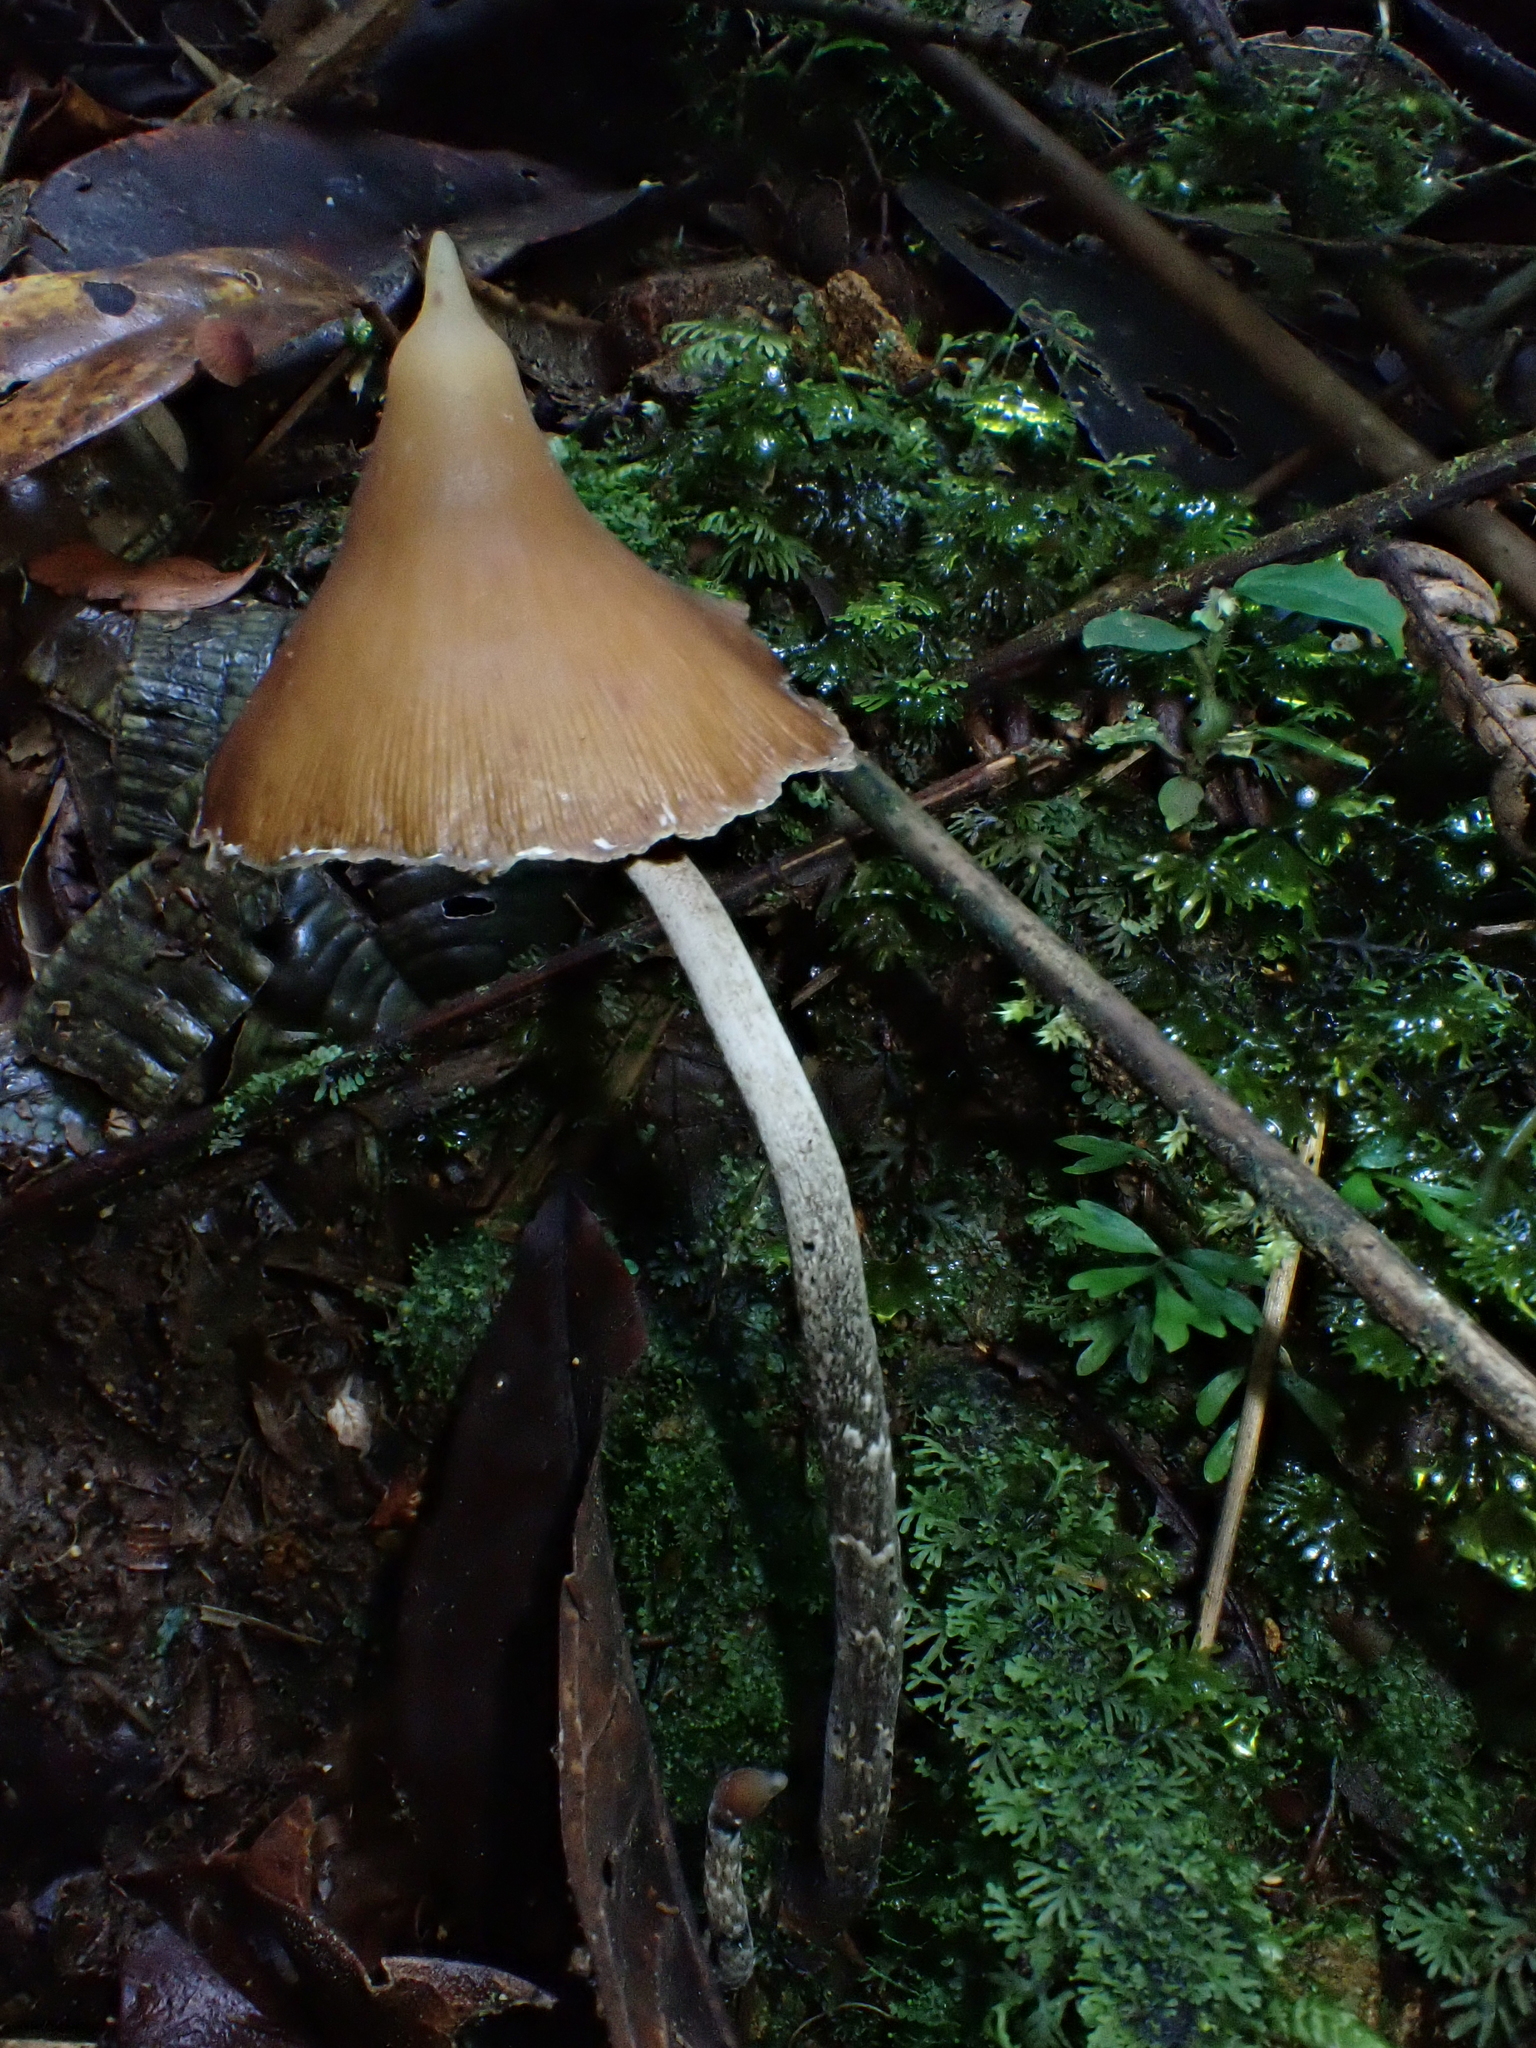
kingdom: Fungi
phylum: Basidiomycota
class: Agaricomycetes
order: Agaricales
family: Hymenogastraceae
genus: Psilocybe
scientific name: Psilocybe hoogshagenii
